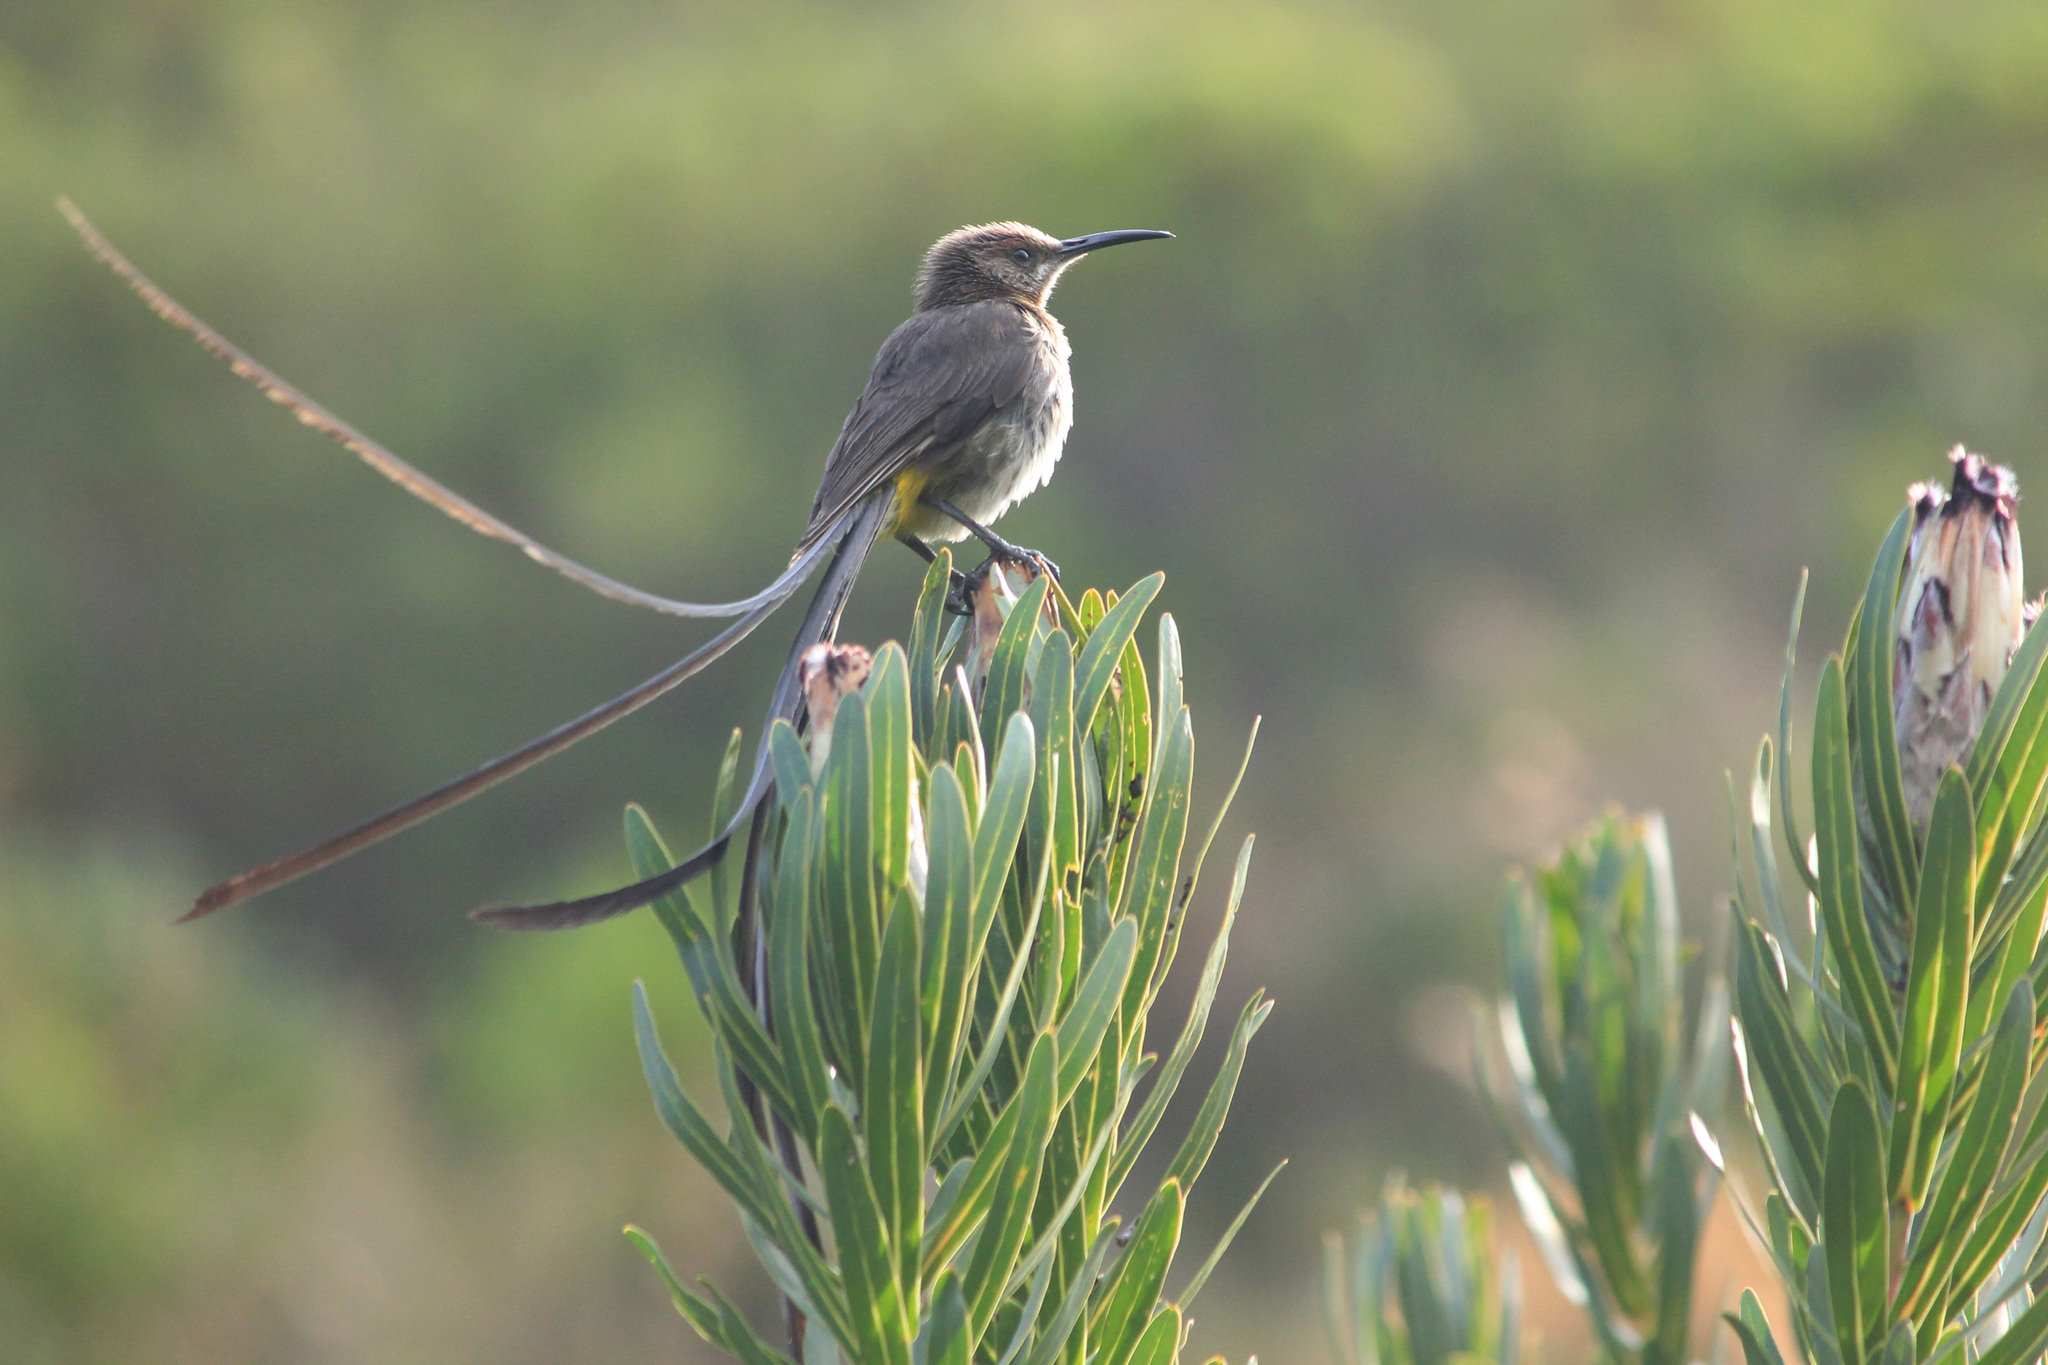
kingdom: Animalia
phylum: Chordata
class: Aves
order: Passeriformes
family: Promeropidae
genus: Promerops
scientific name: Promerops cafer
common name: Cape sugarbird
